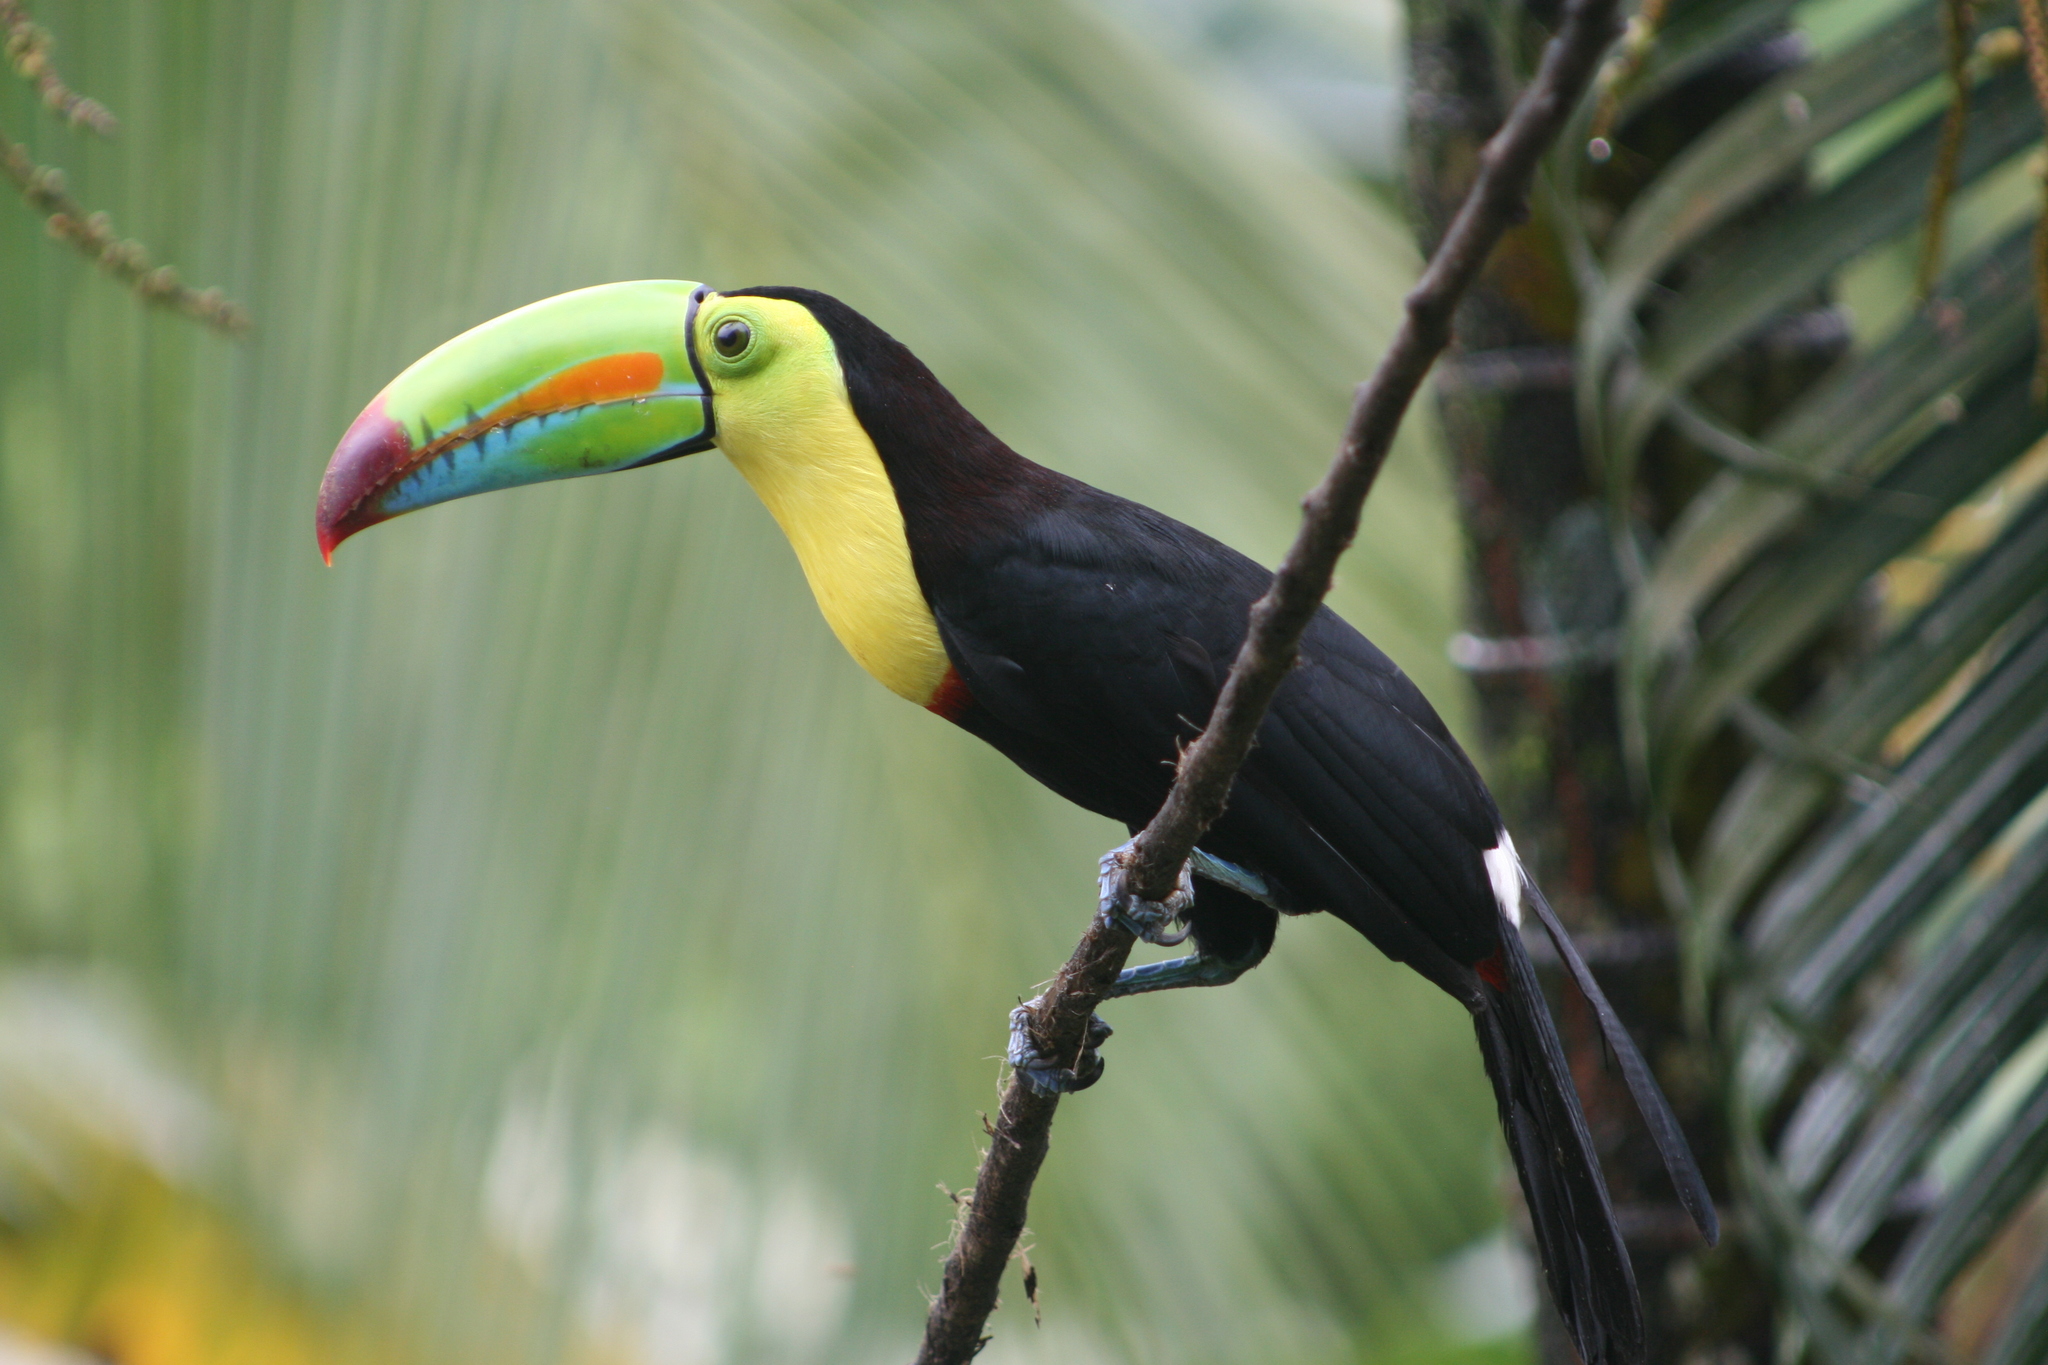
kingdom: Animalia
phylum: Chordata
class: Aves
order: Piciformes
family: Ramphastidae
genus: Ramphastos
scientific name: Ramphastos sulfuratus
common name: Keel-billed toucan
